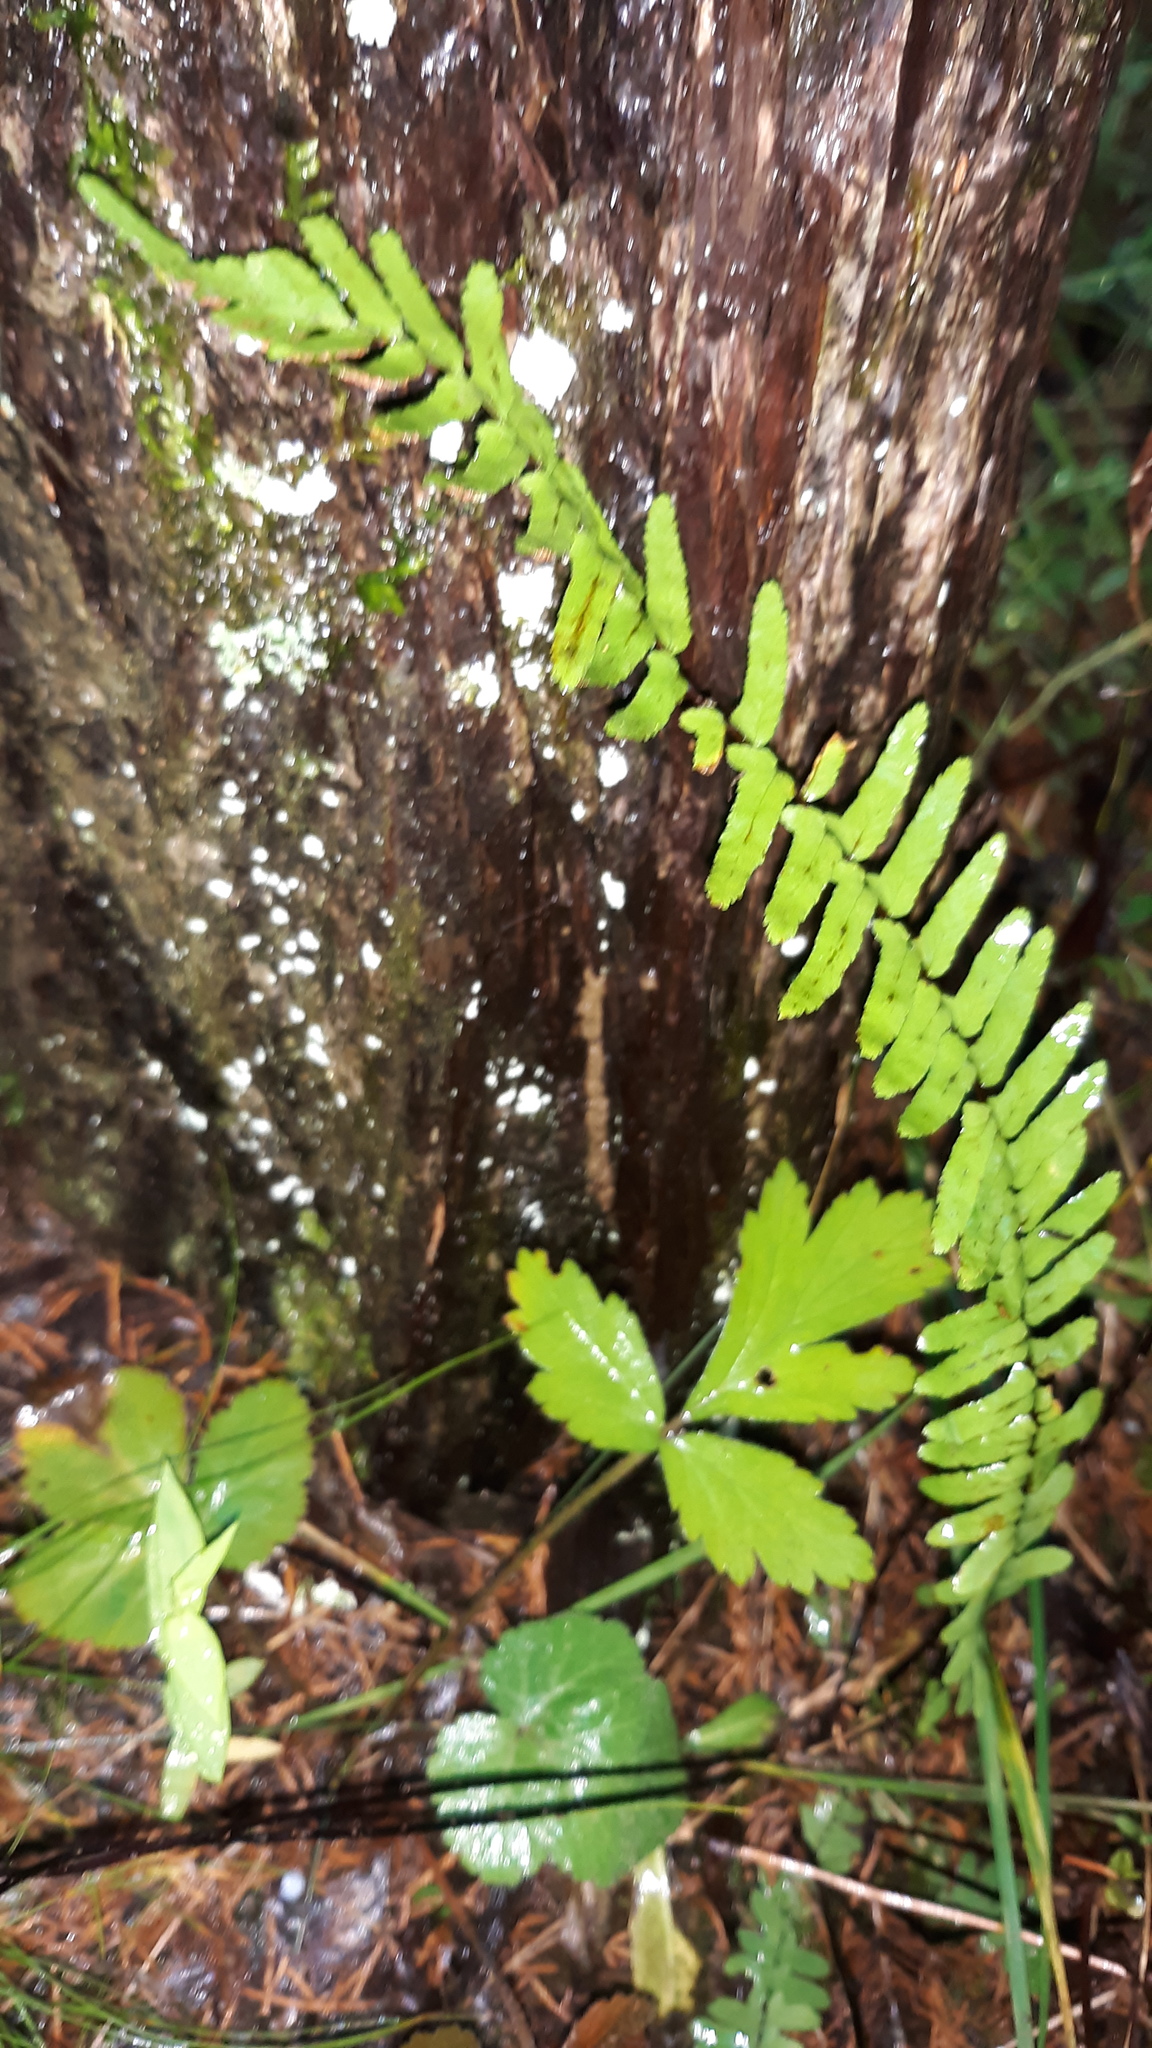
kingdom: Plantae
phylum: Tracheophyta
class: Polypodiopsida
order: Polypodiales
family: Aspleniaceae
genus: Asplenium
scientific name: Asplenium platyneuron
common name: Ebony spleenwort
